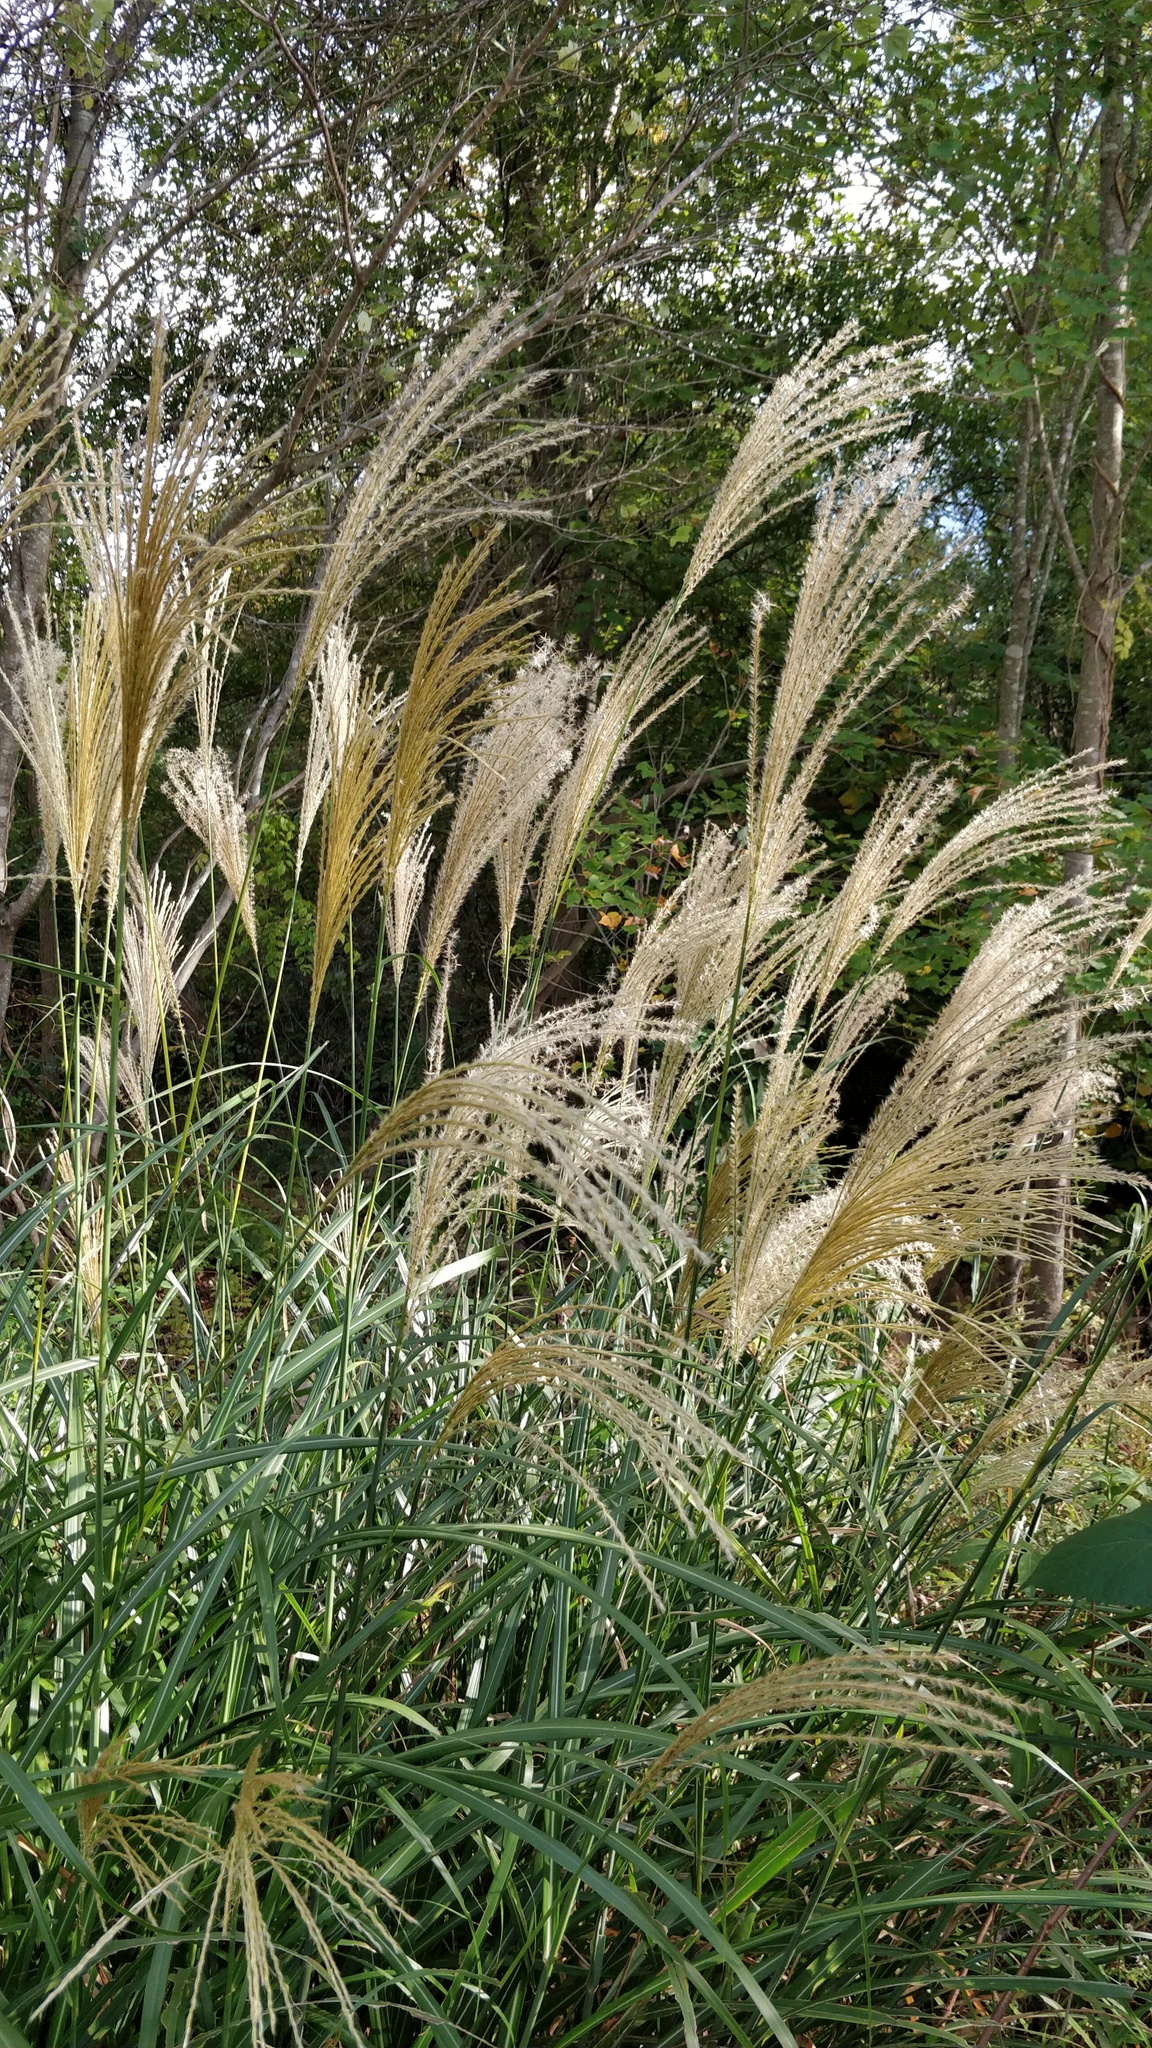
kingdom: Plantae
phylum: Tracheophyta
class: Liliopsida
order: Poales
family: Poaceae
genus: Miscanthus
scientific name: Miscanthus sinensis
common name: Chinese silvergrass
